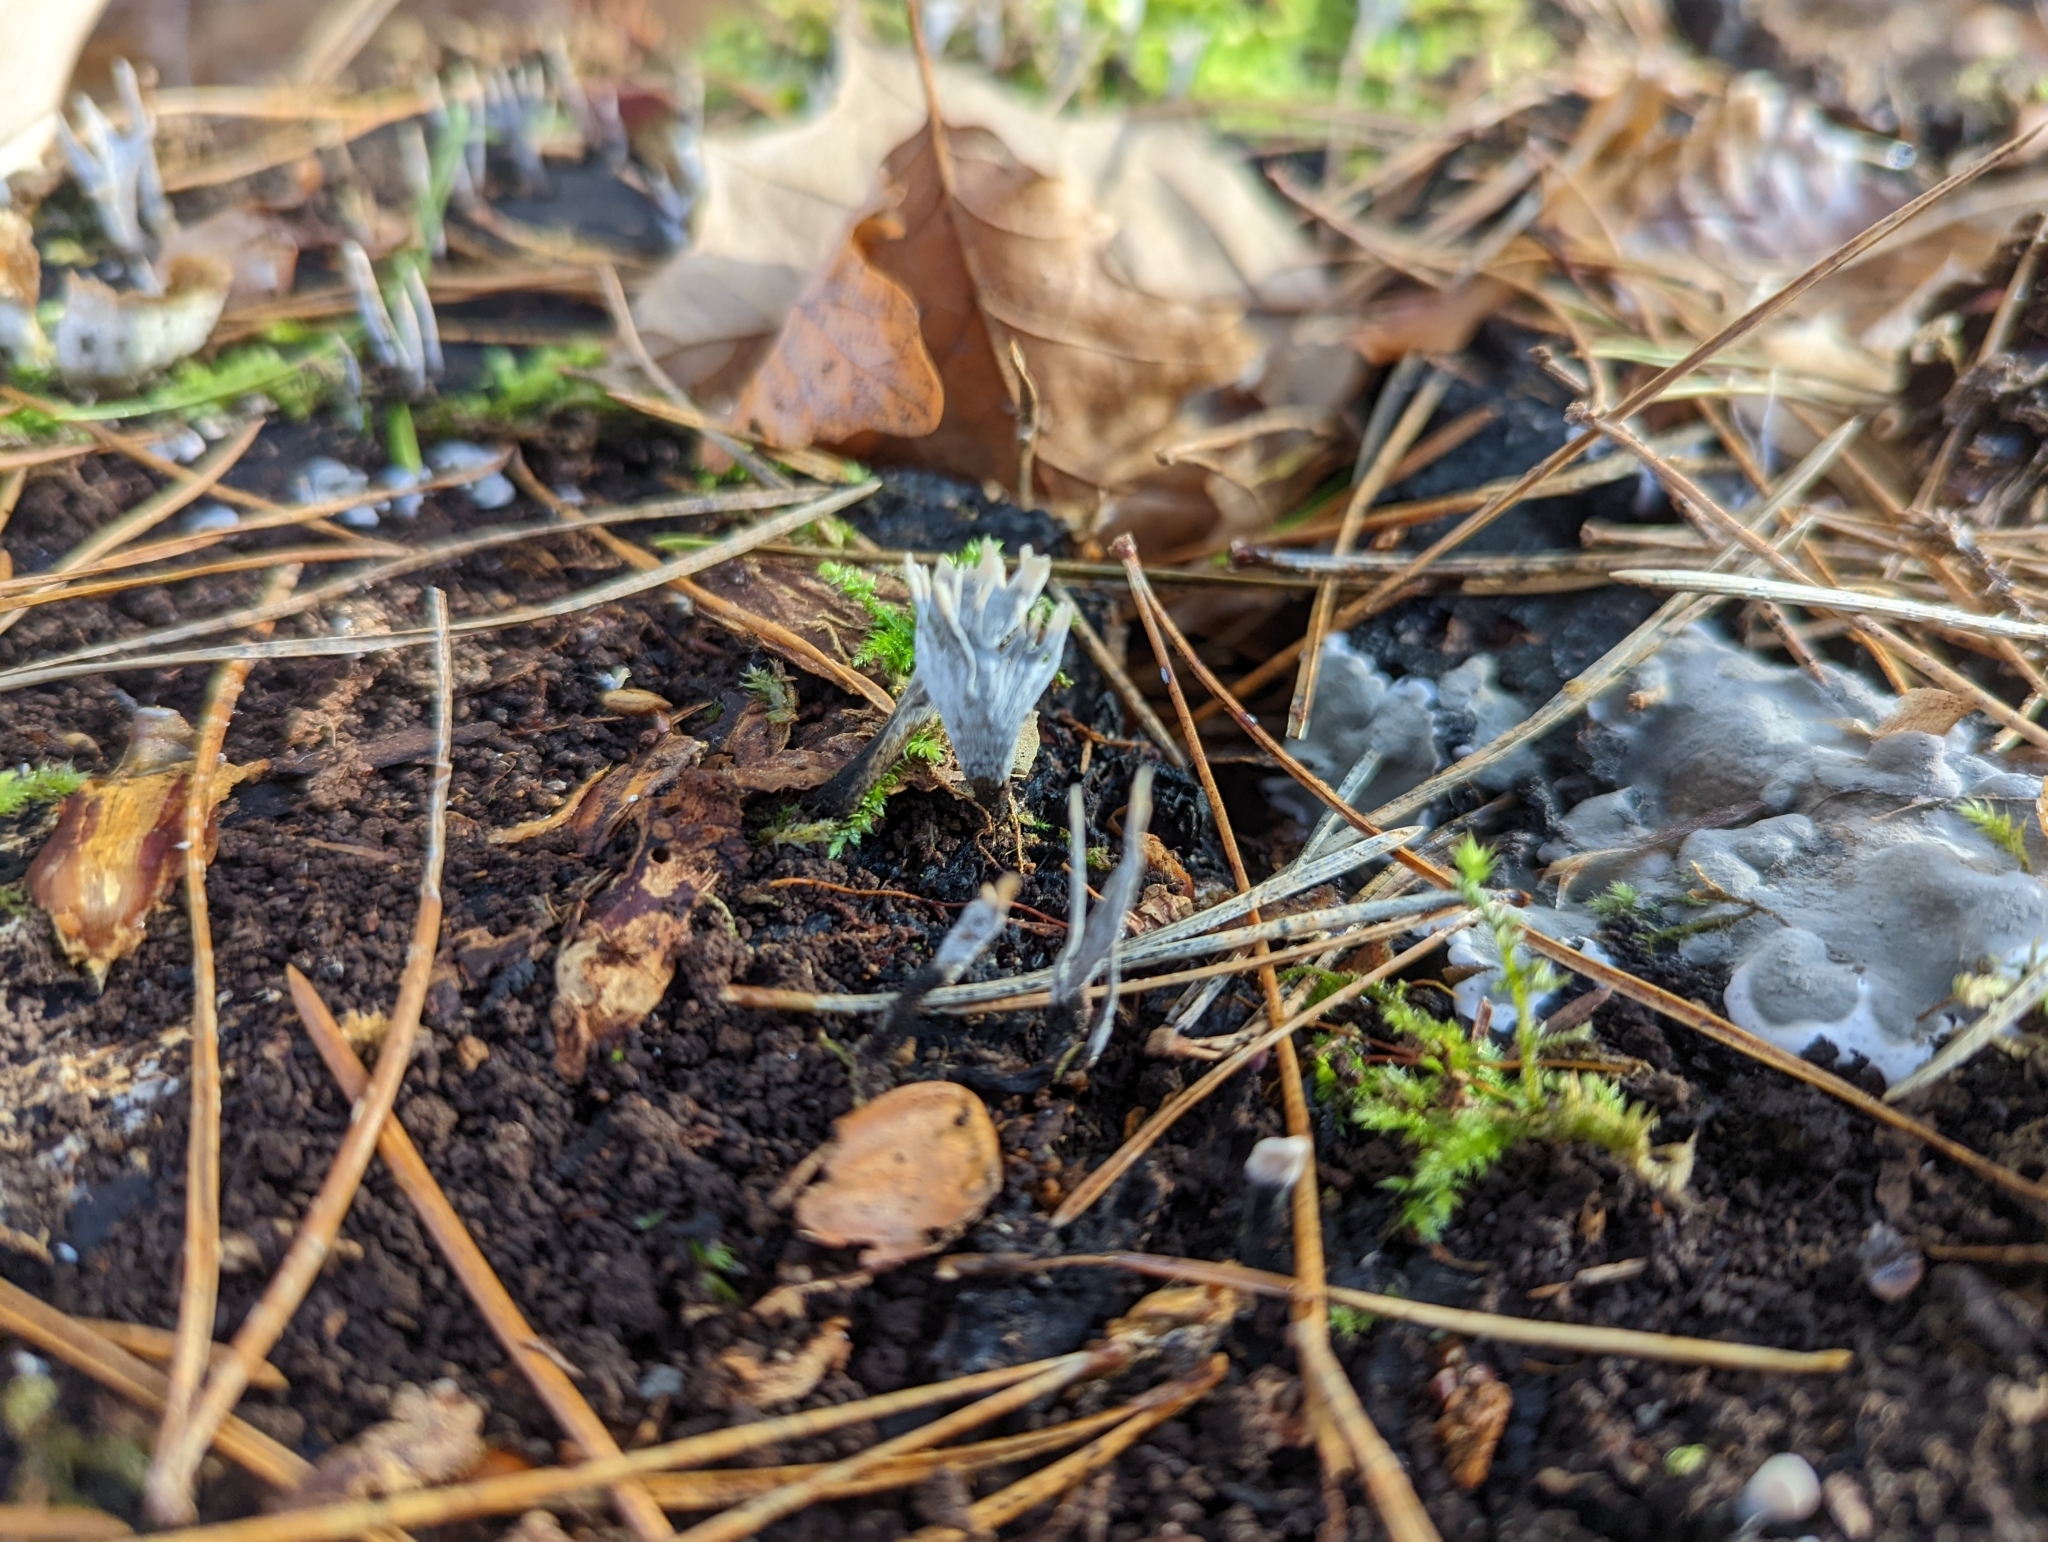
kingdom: Fungi
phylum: Ascomycota
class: Sordariomycetes
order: Xylariales
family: Xylariaceae
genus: Xylaria
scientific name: Xylaria hypoxylon
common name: Candle-snuff fungus
